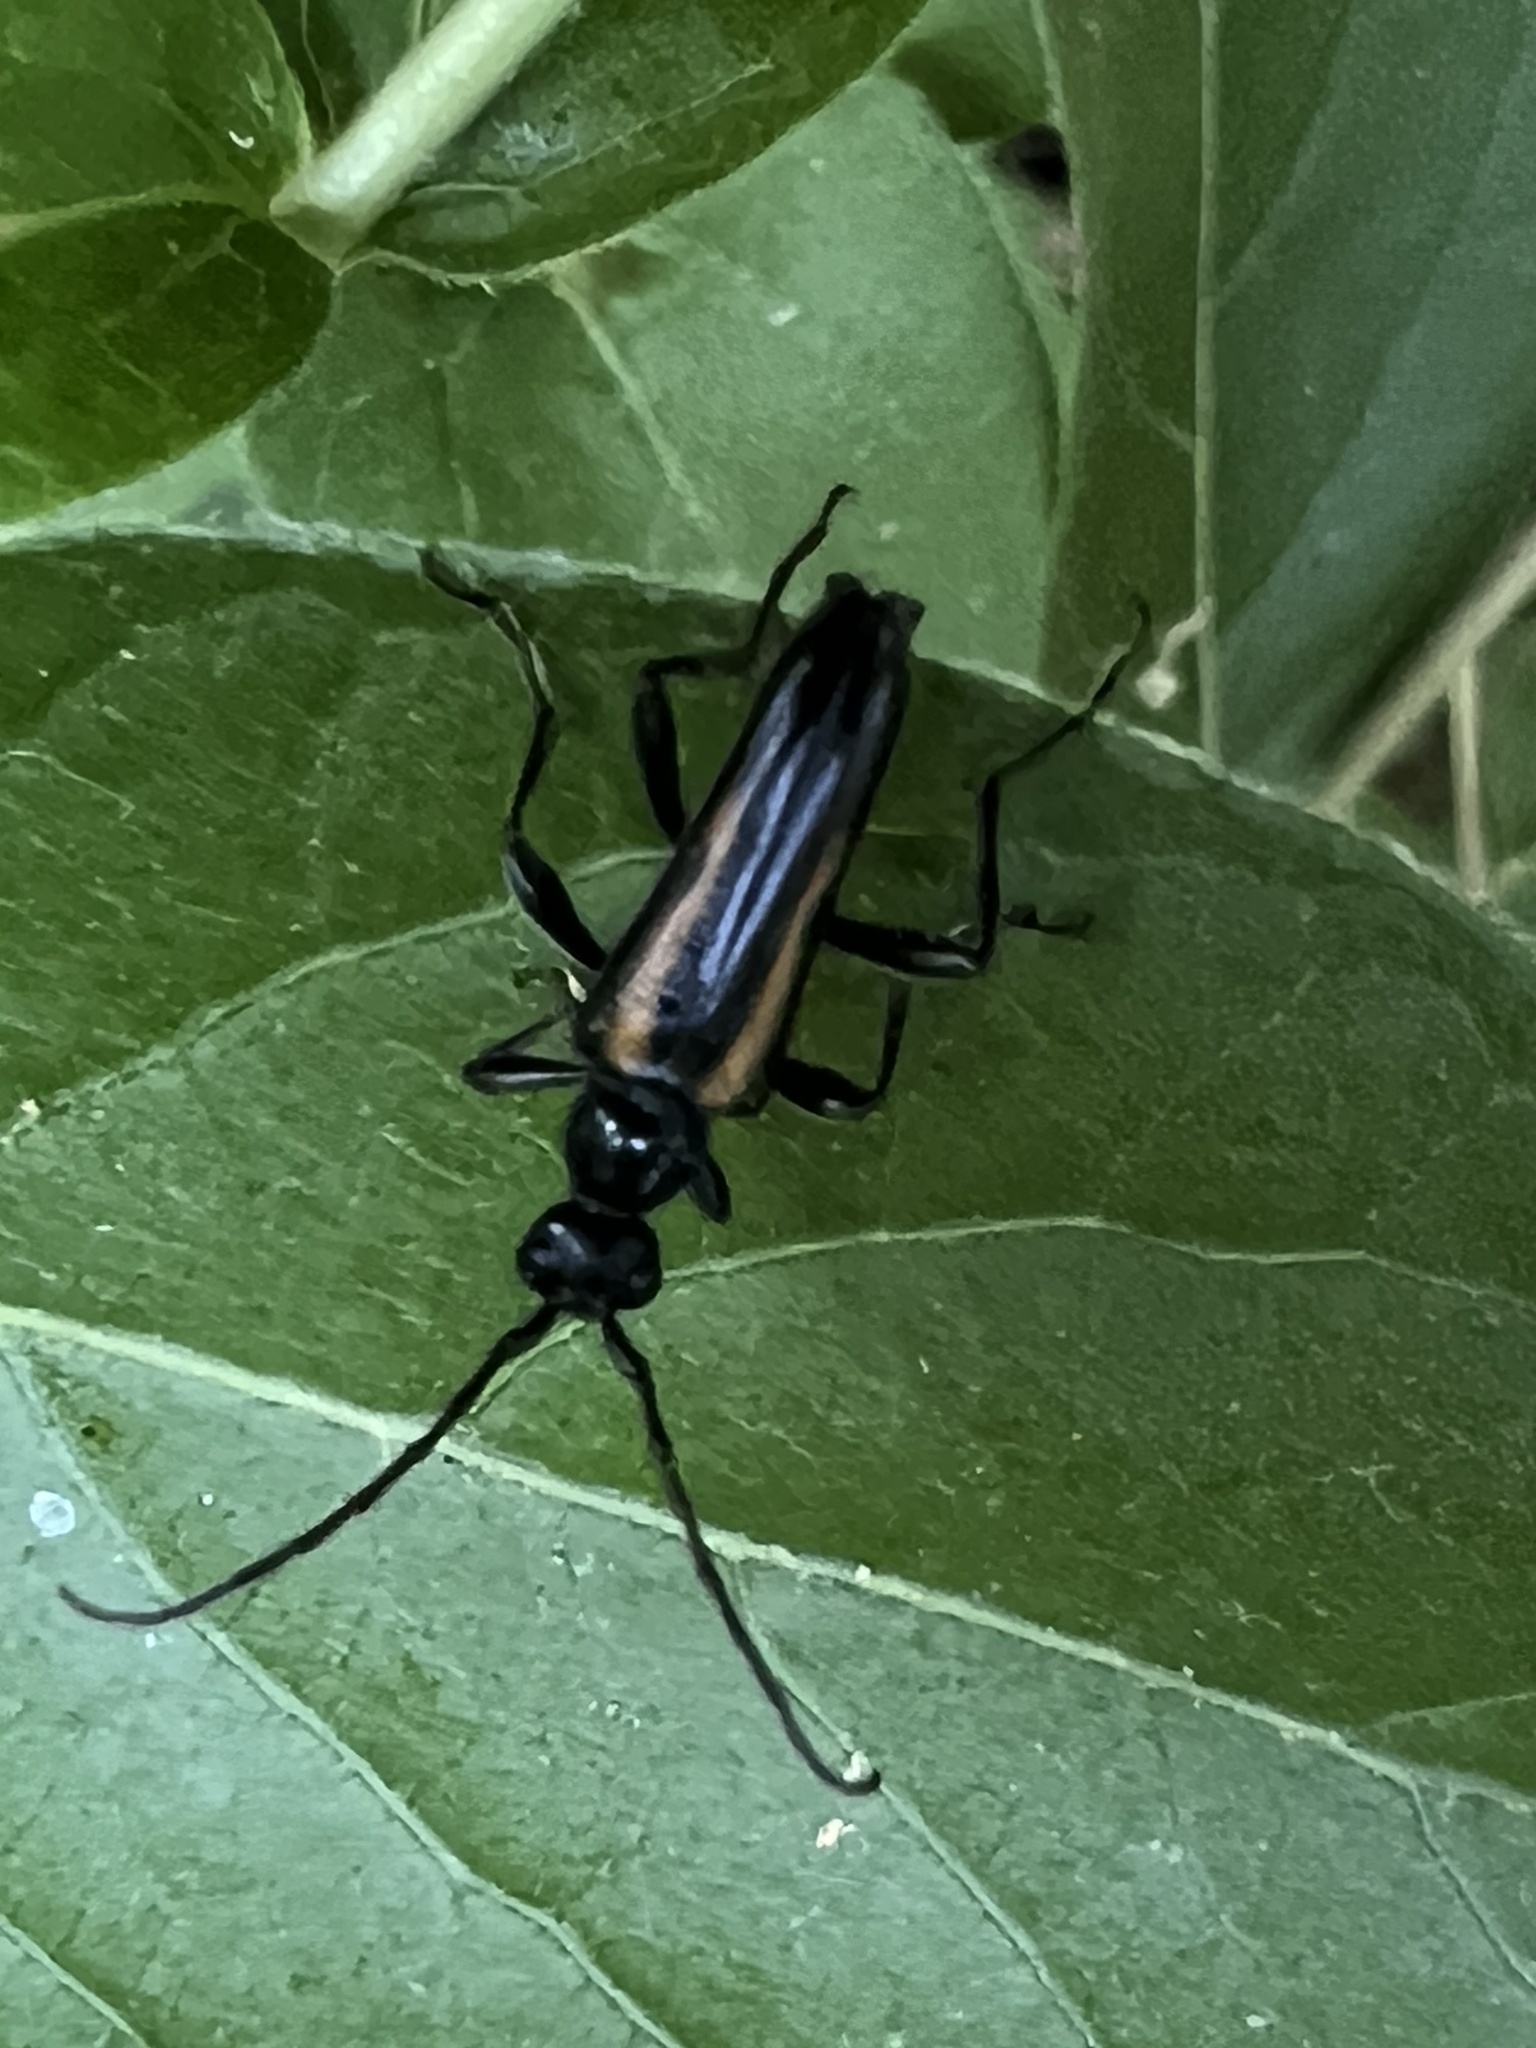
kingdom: Animalia
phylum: Arthropoda
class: Insecta
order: Coleoptera
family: Cerambycidae
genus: Strangalepta
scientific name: Strangalepta abbreviata
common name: Strangalepta flower longhorn beetle
